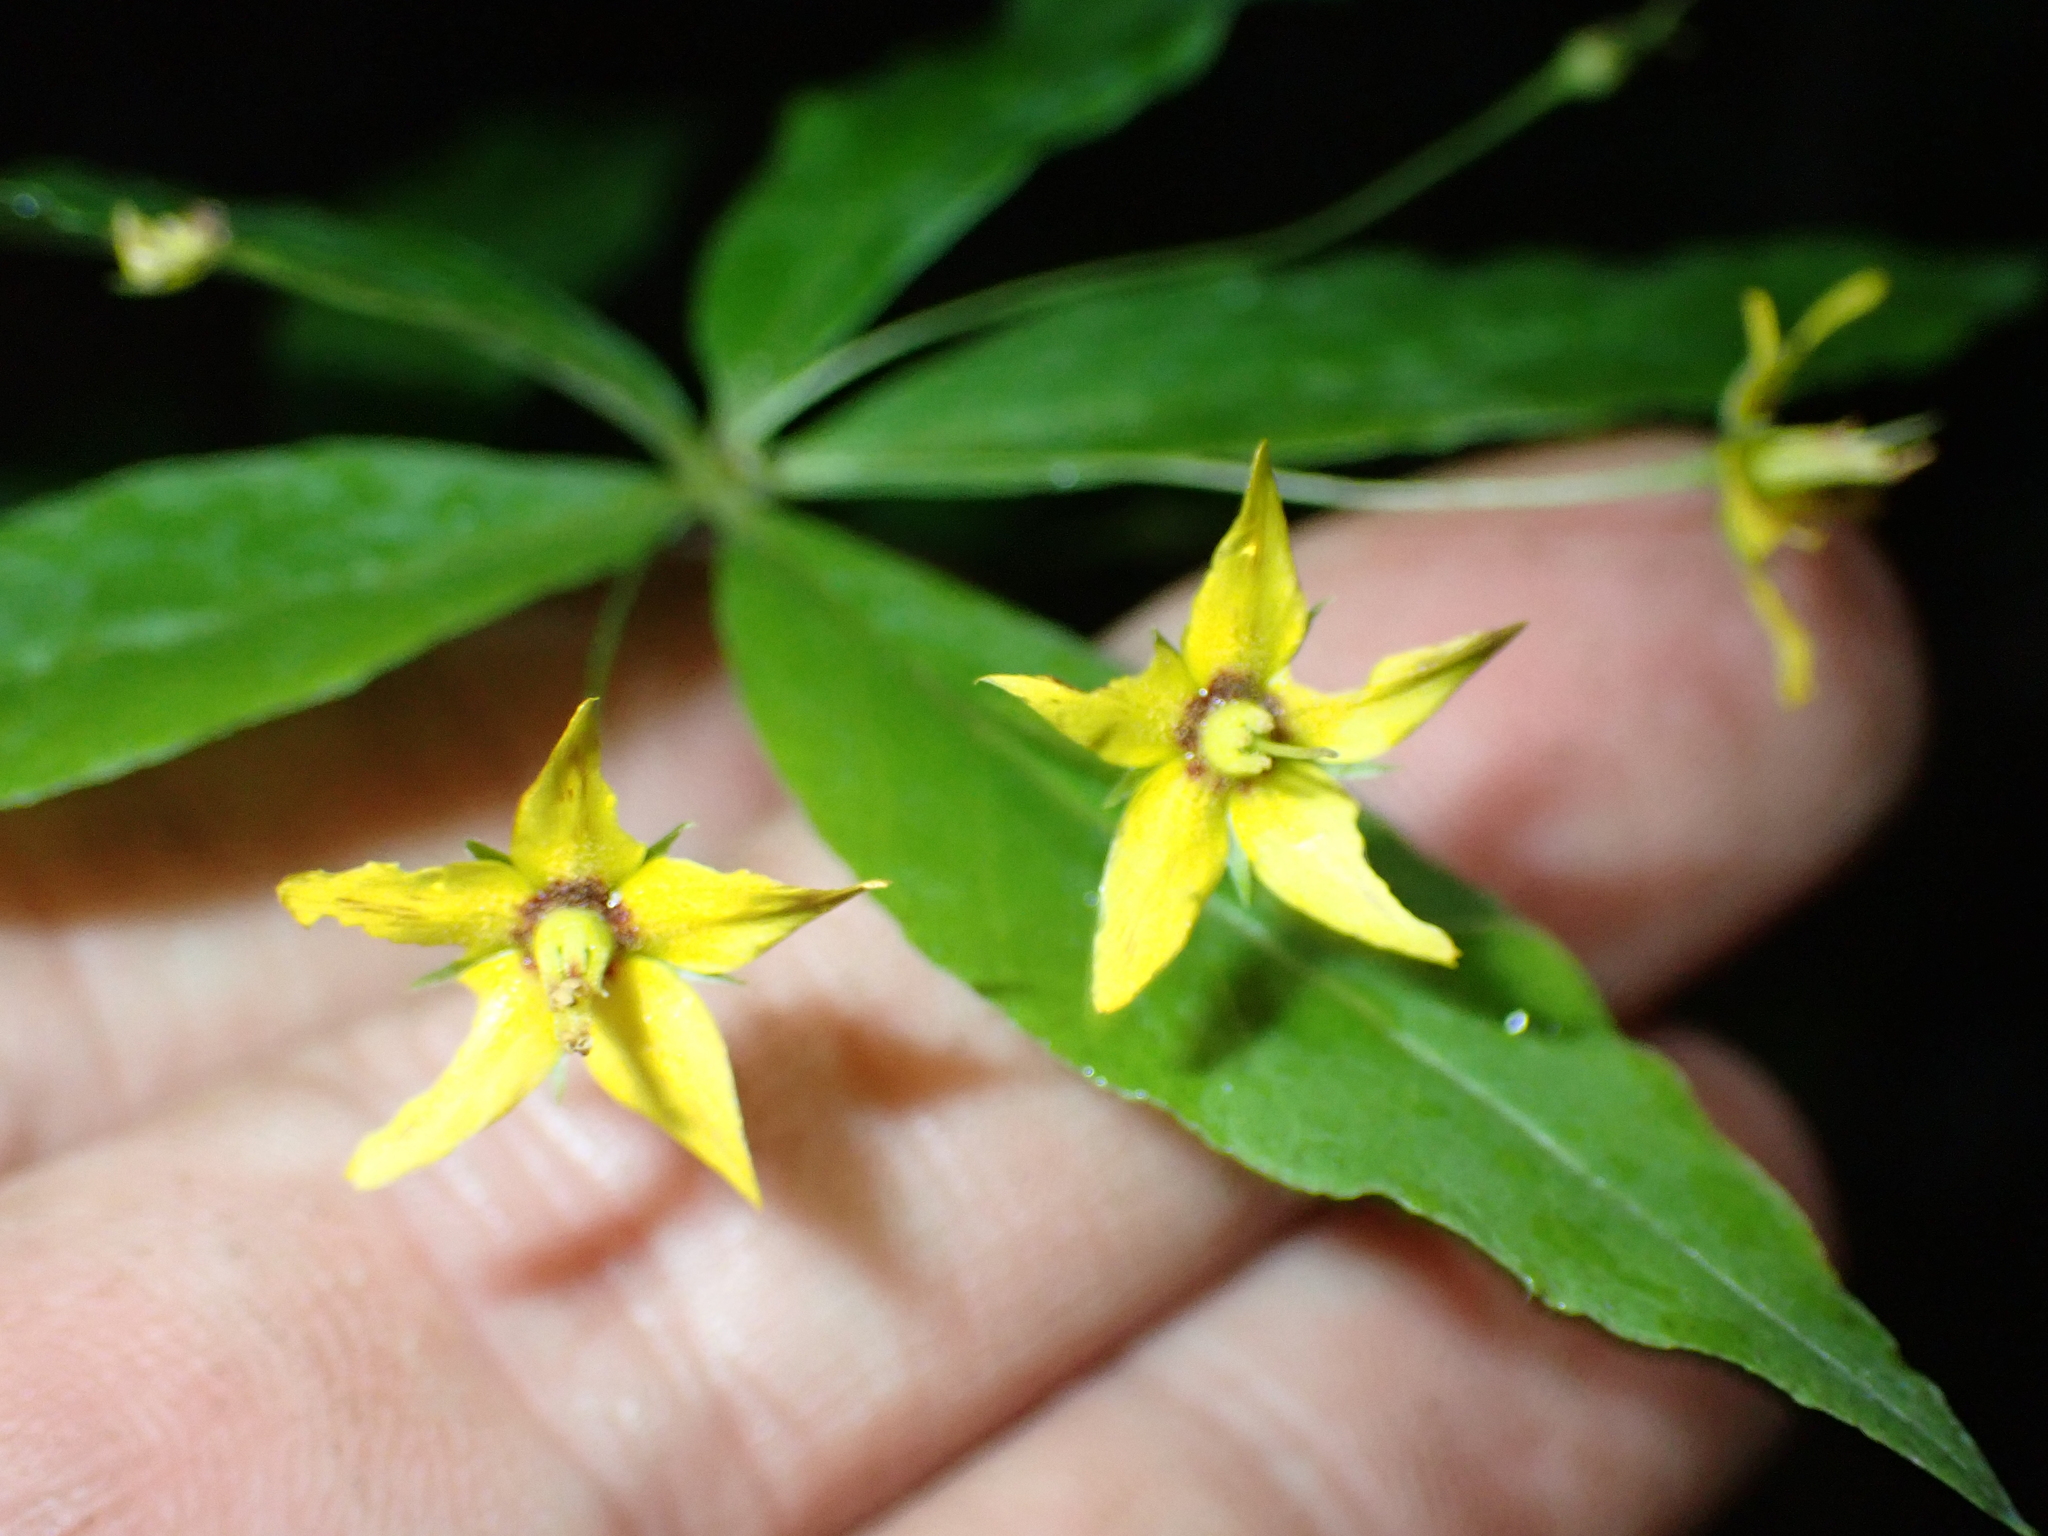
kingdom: Plantae
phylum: Tracheophyta
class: Magnoliopsida
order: Ericales
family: Primulaceae
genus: Lysimachia
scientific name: Lysimachia quadrifolia
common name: Whorled loosestrife
